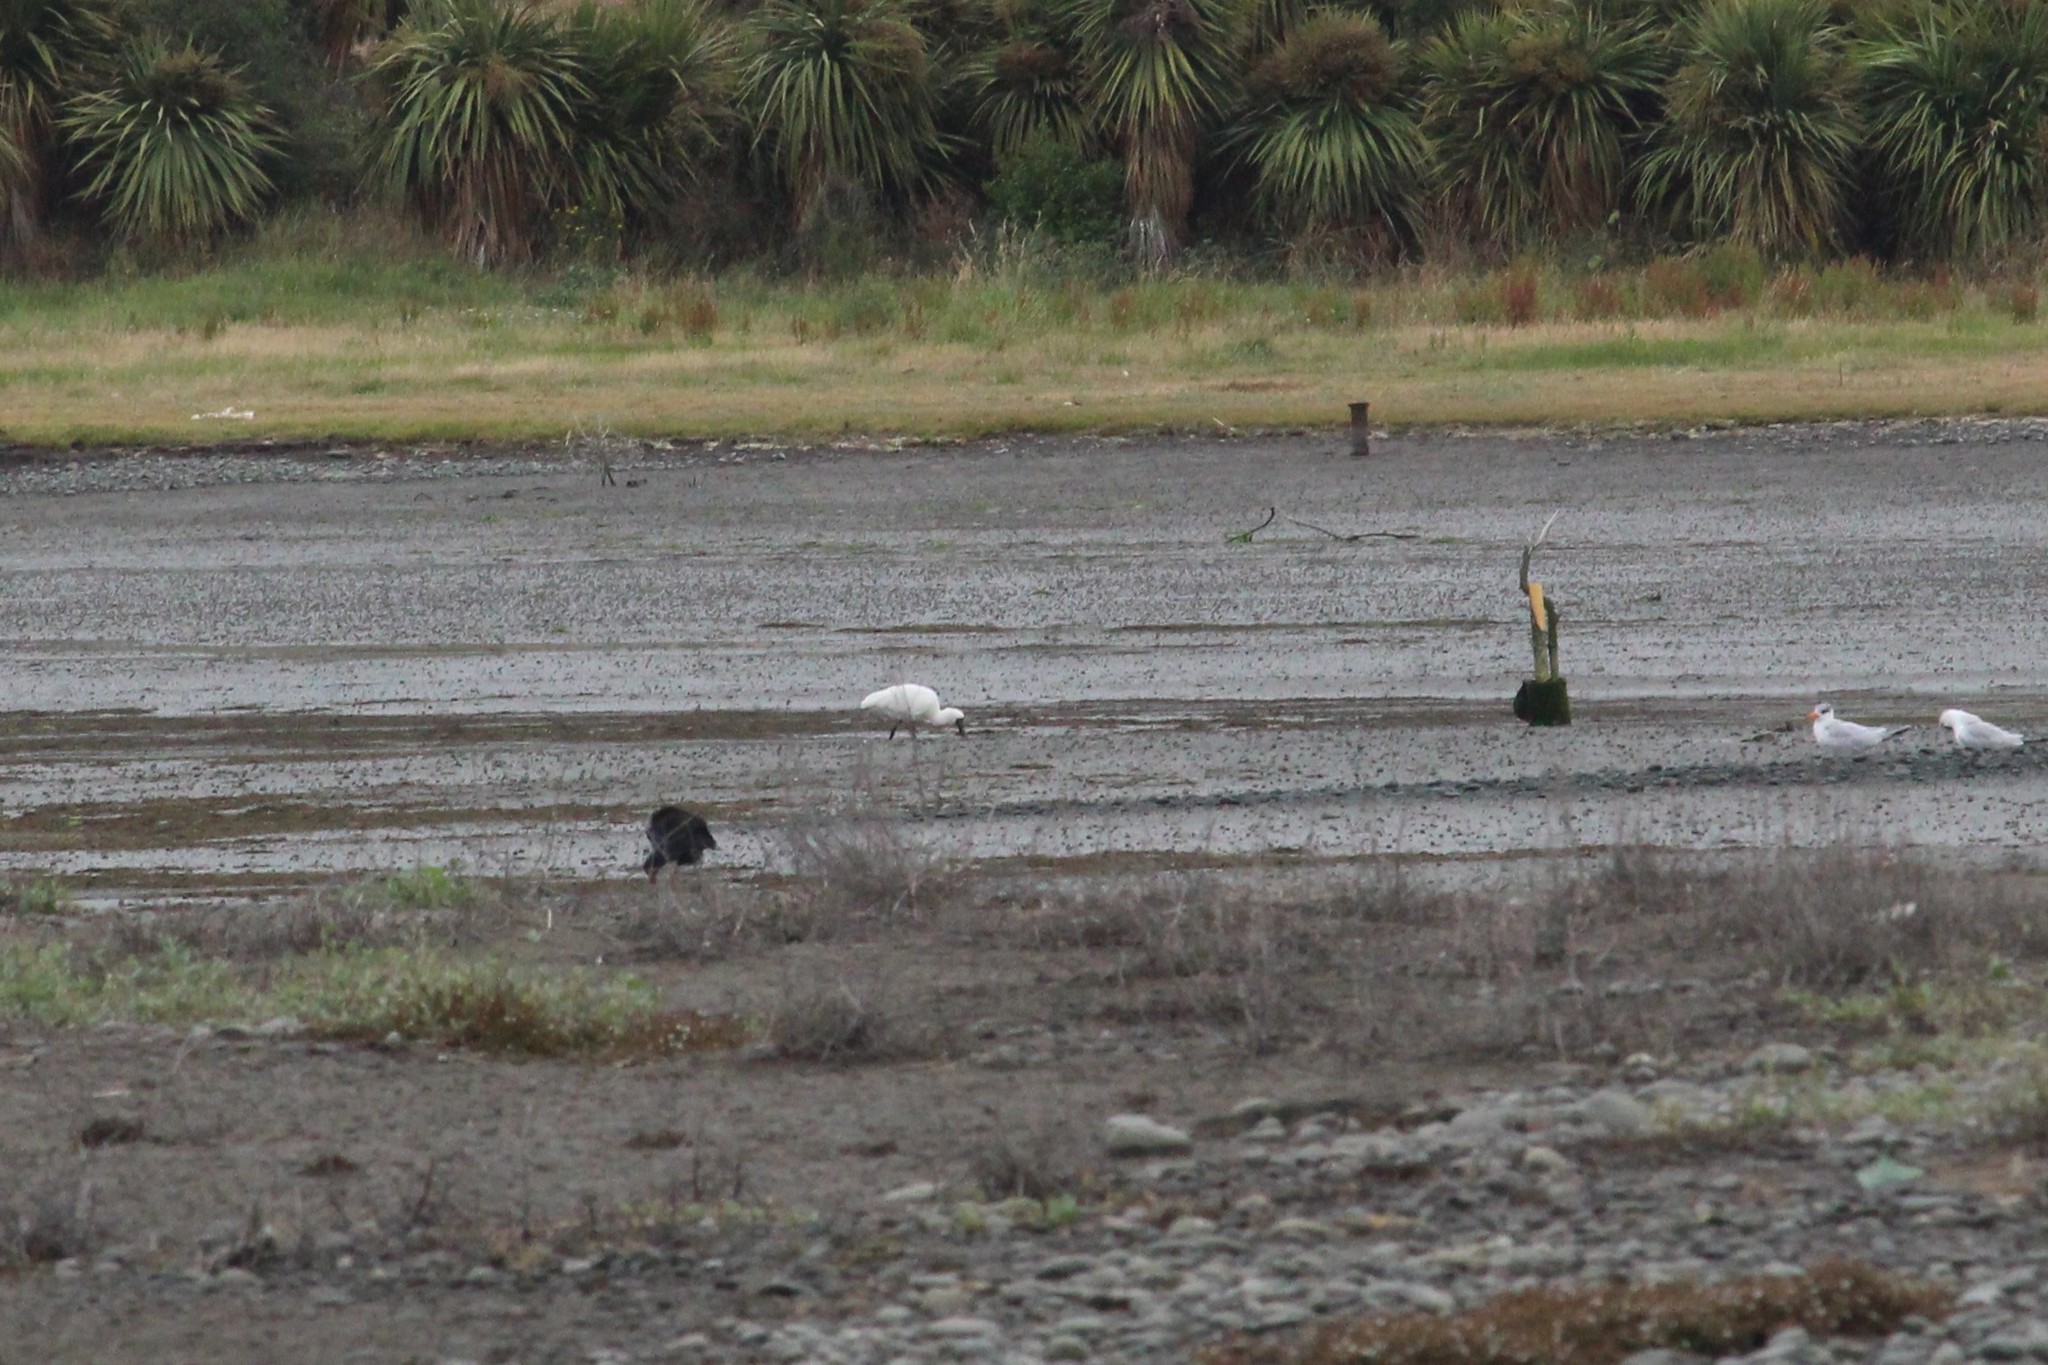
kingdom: Animalia
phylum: Chordata
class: Aves
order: Pelecaniformes
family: Threskiornithidae
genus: Platalea
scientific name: Platalea regia
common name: Royal spoonbill
